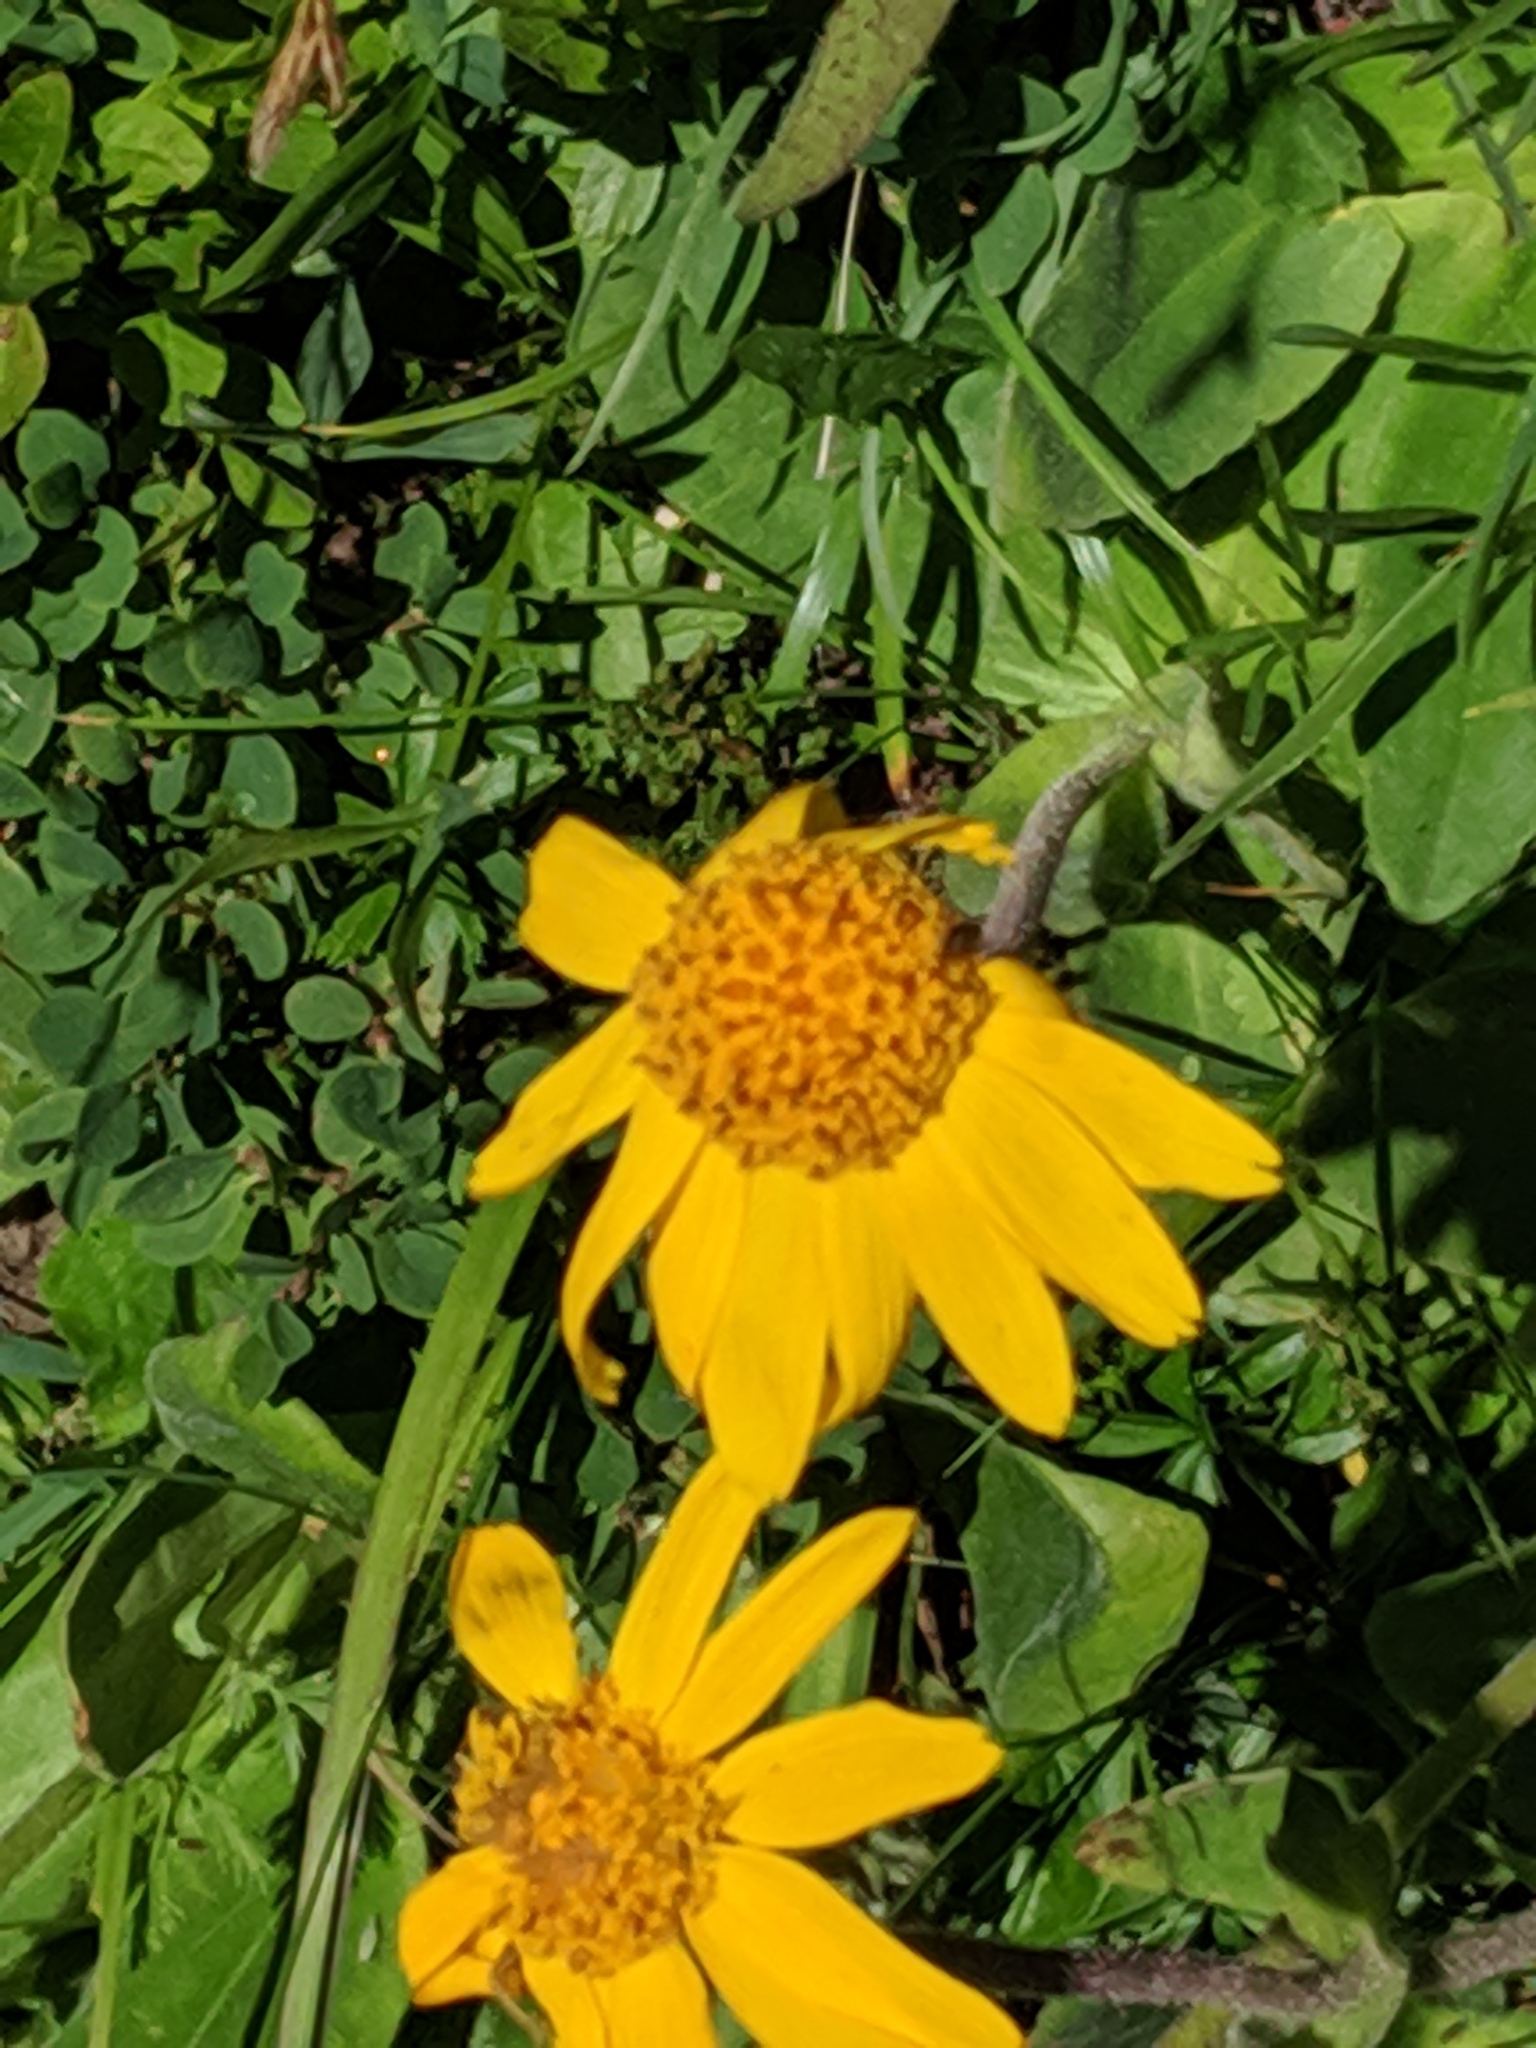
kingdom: Plantae
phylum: Tracheophyta
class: Magnoliopsida
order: Asterales
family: Asteraceae
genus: Arnica
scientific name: Arnica montana
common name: Leopard's bane
